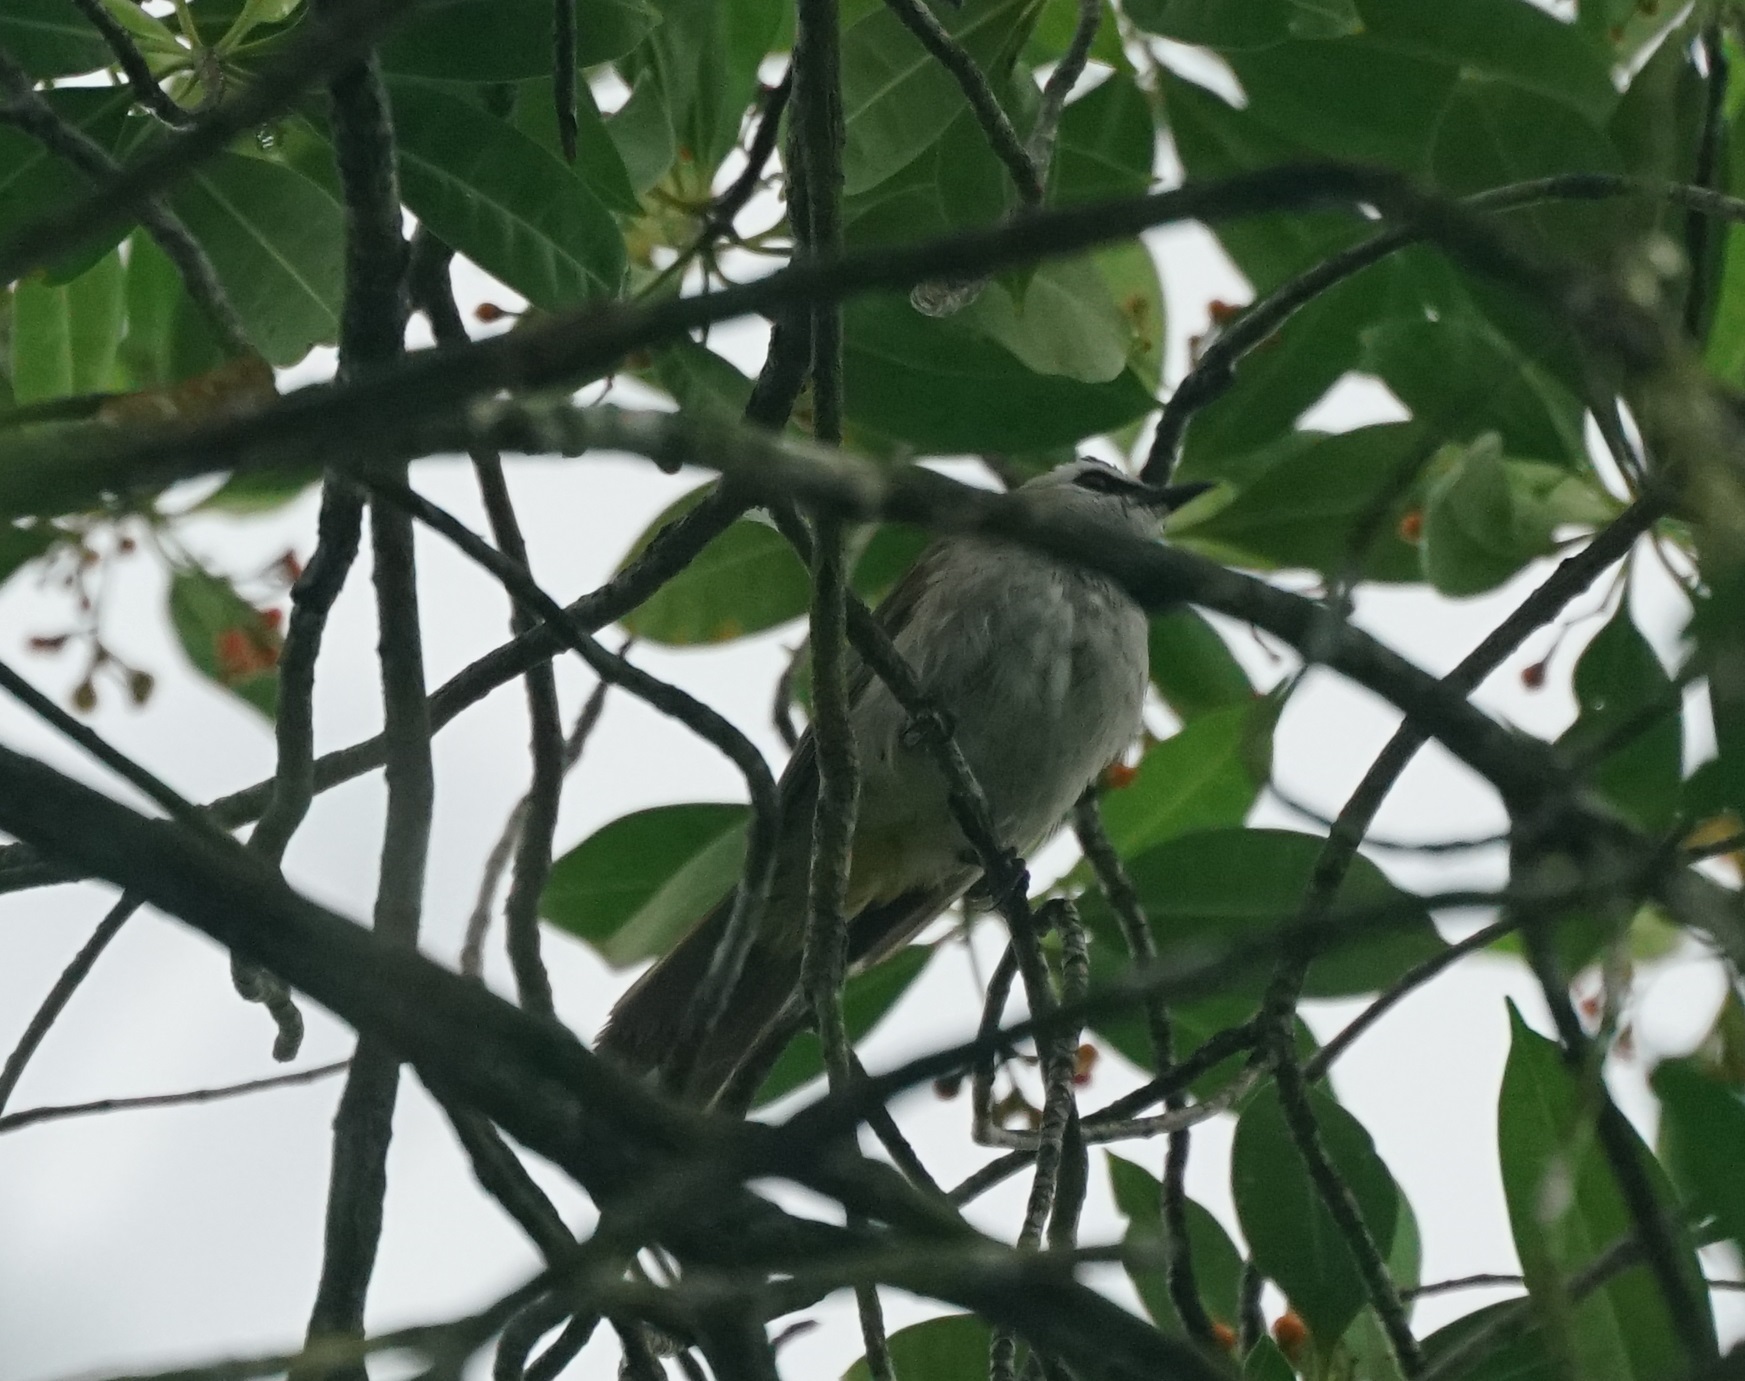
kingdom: Animalia
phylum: Chordata
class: Aves
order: Passeriformes
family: Pycnonotidae
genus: Pycnonotus
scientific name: Pycnonotus goiavier
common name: Yellow-vented bulbul
